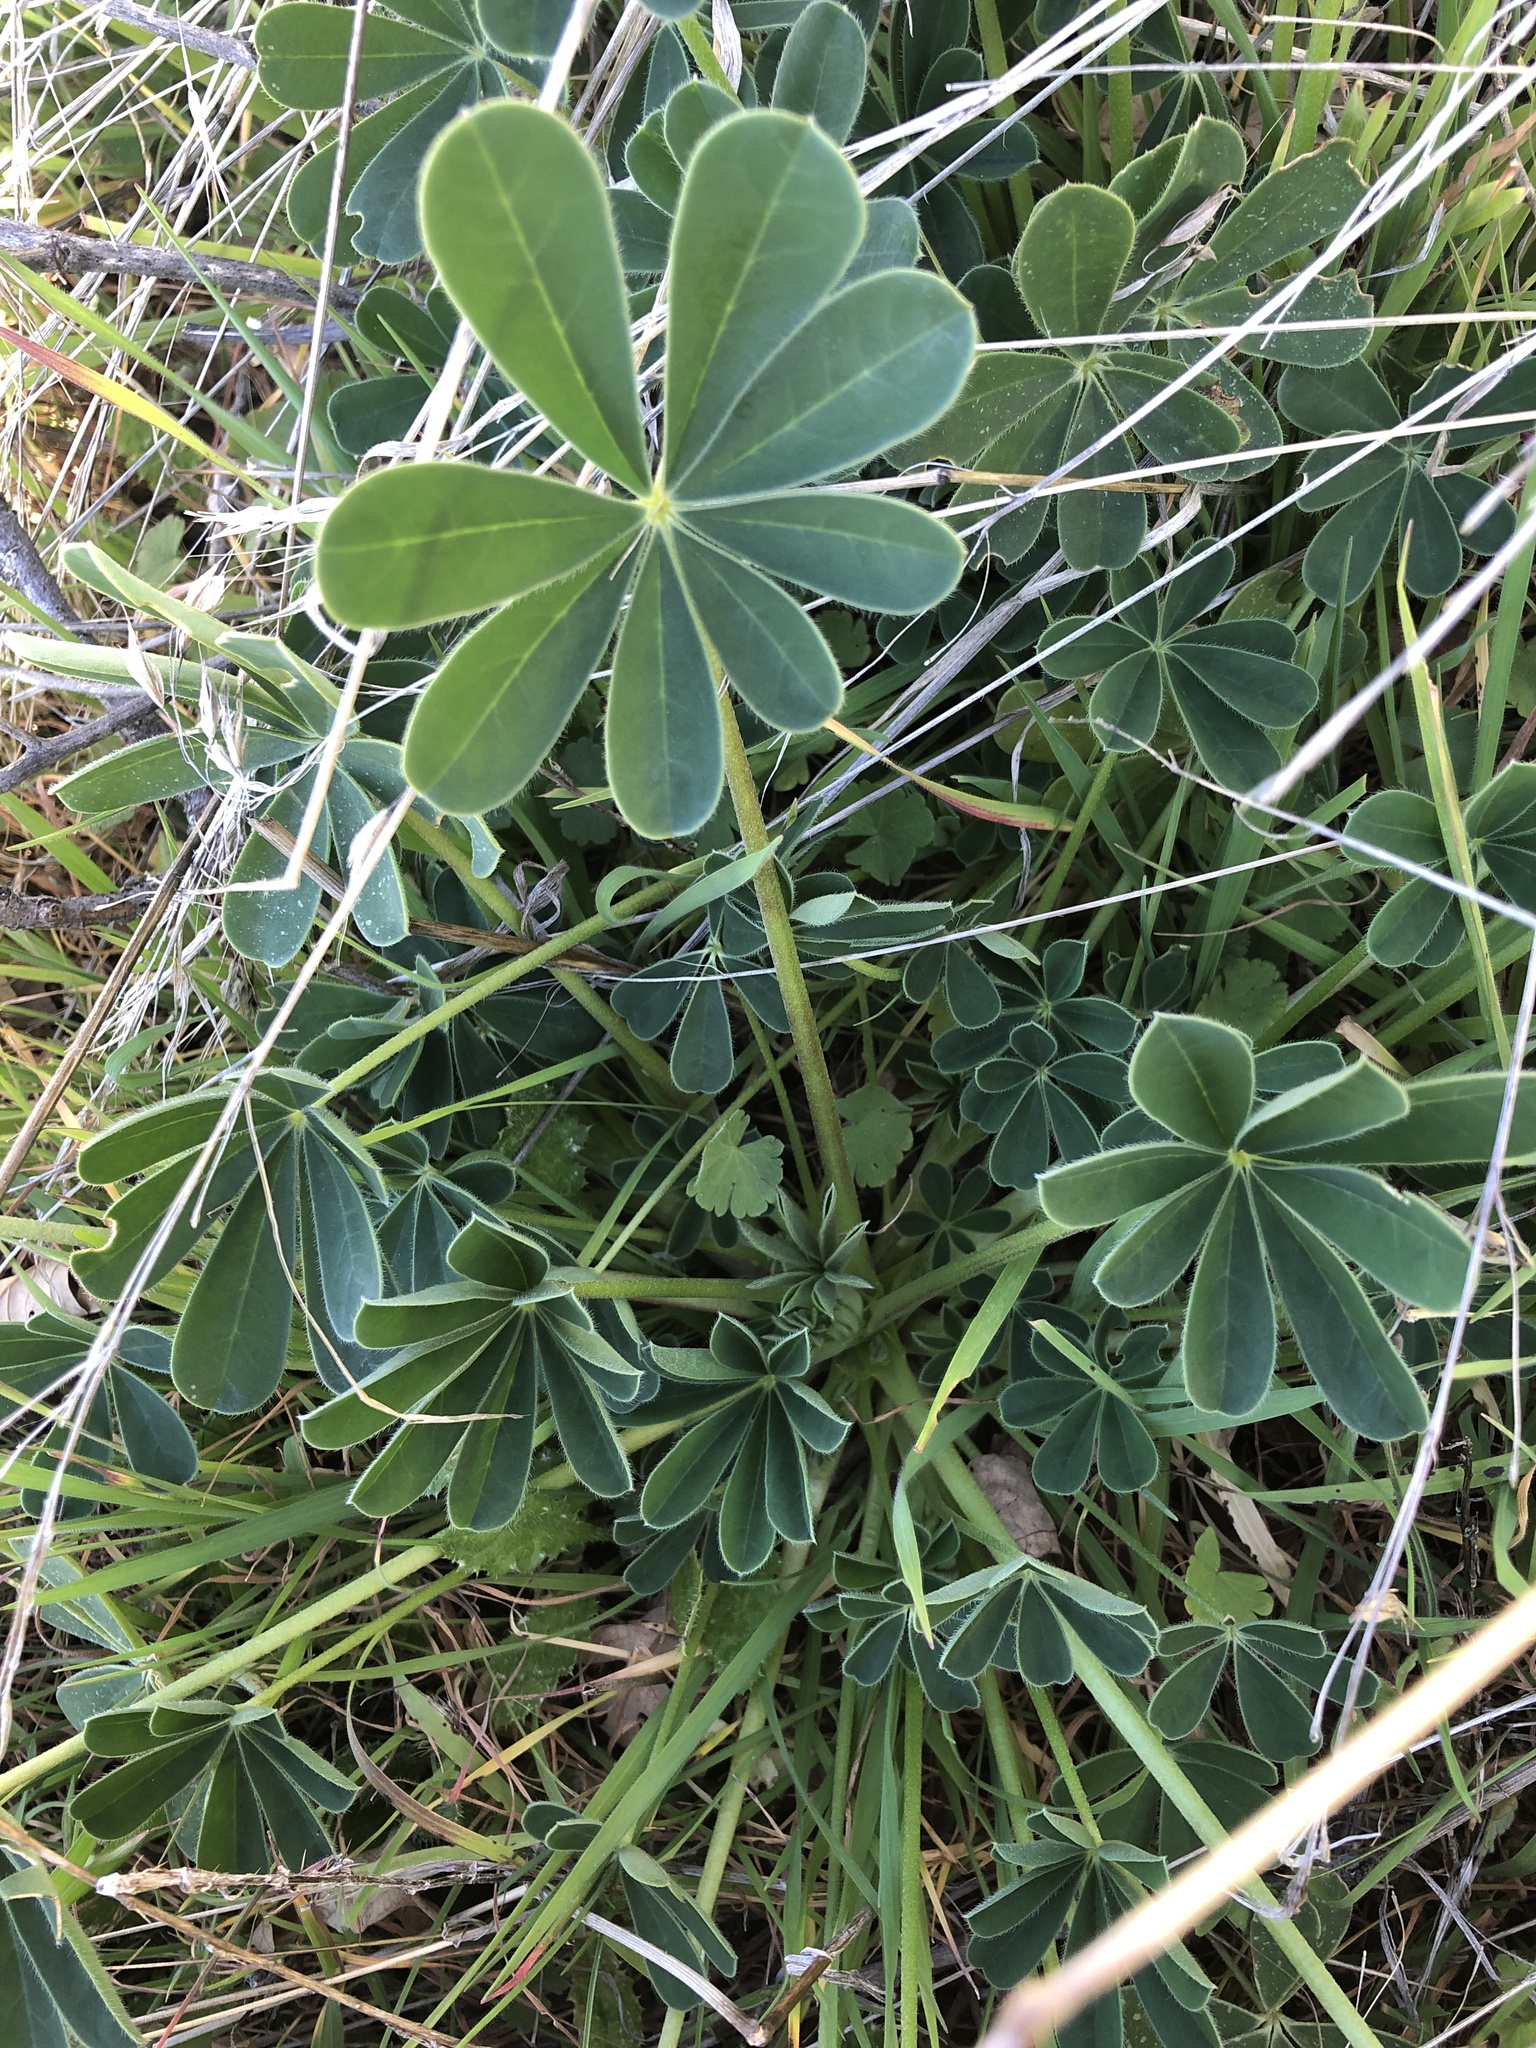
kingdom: Plantae
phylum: Tracheophyta
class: Magnoliopsida
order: Fabales
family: Fabaceae
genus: Lupinus
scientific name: Lupinus succulentus
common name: Arroyo lupine
